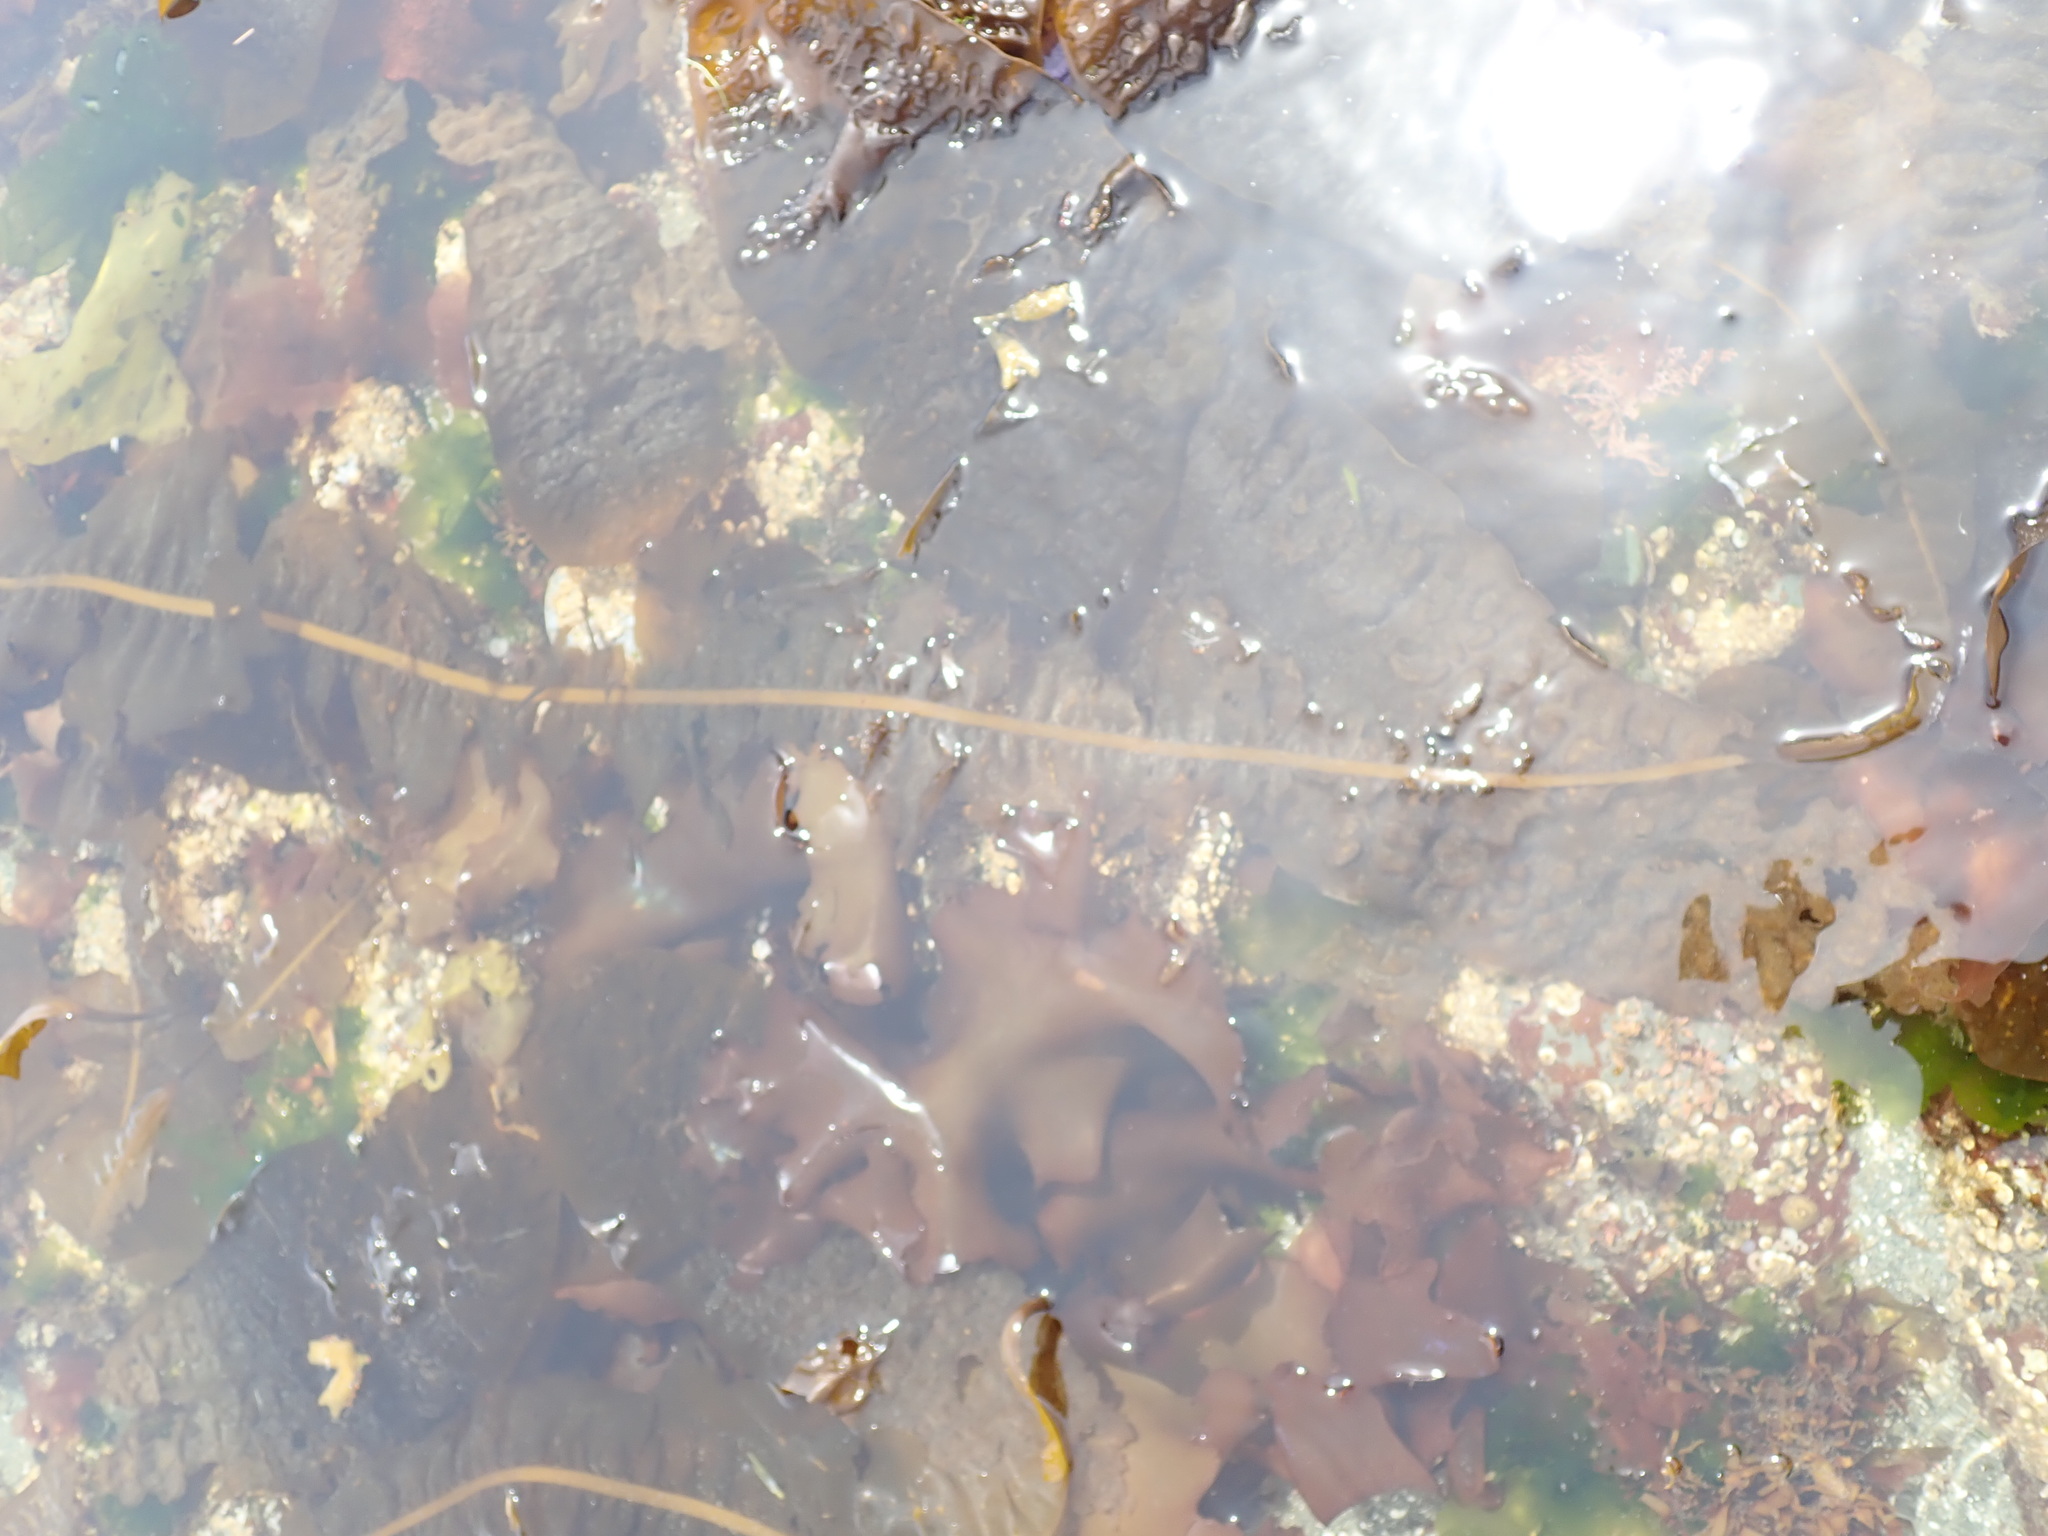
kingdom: Chromista
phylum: Ochrophyta
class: Phaeophyceae
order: Laminariales
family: Alariaceae
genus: Alaria
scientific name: Alaria marginata
